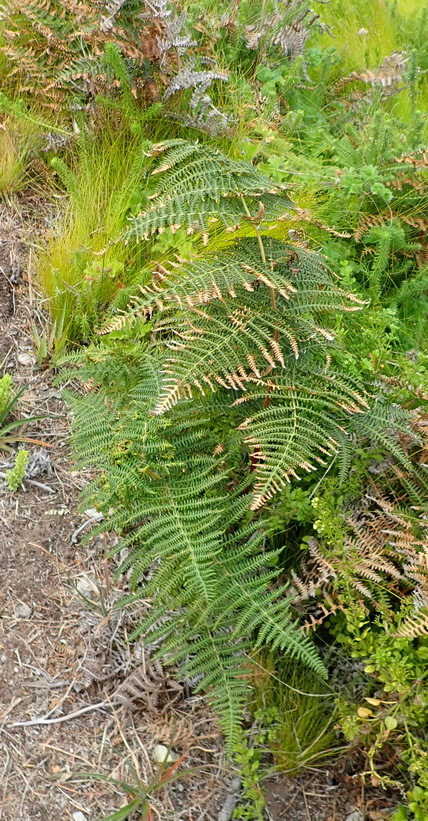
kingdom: Plantae
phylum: Tracheophyta
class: Polypodiopsida
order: Polypodiales
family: Dennstaedtiaceae
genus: Pteridium
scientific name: Pteridium aquilinum
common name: Bracken
